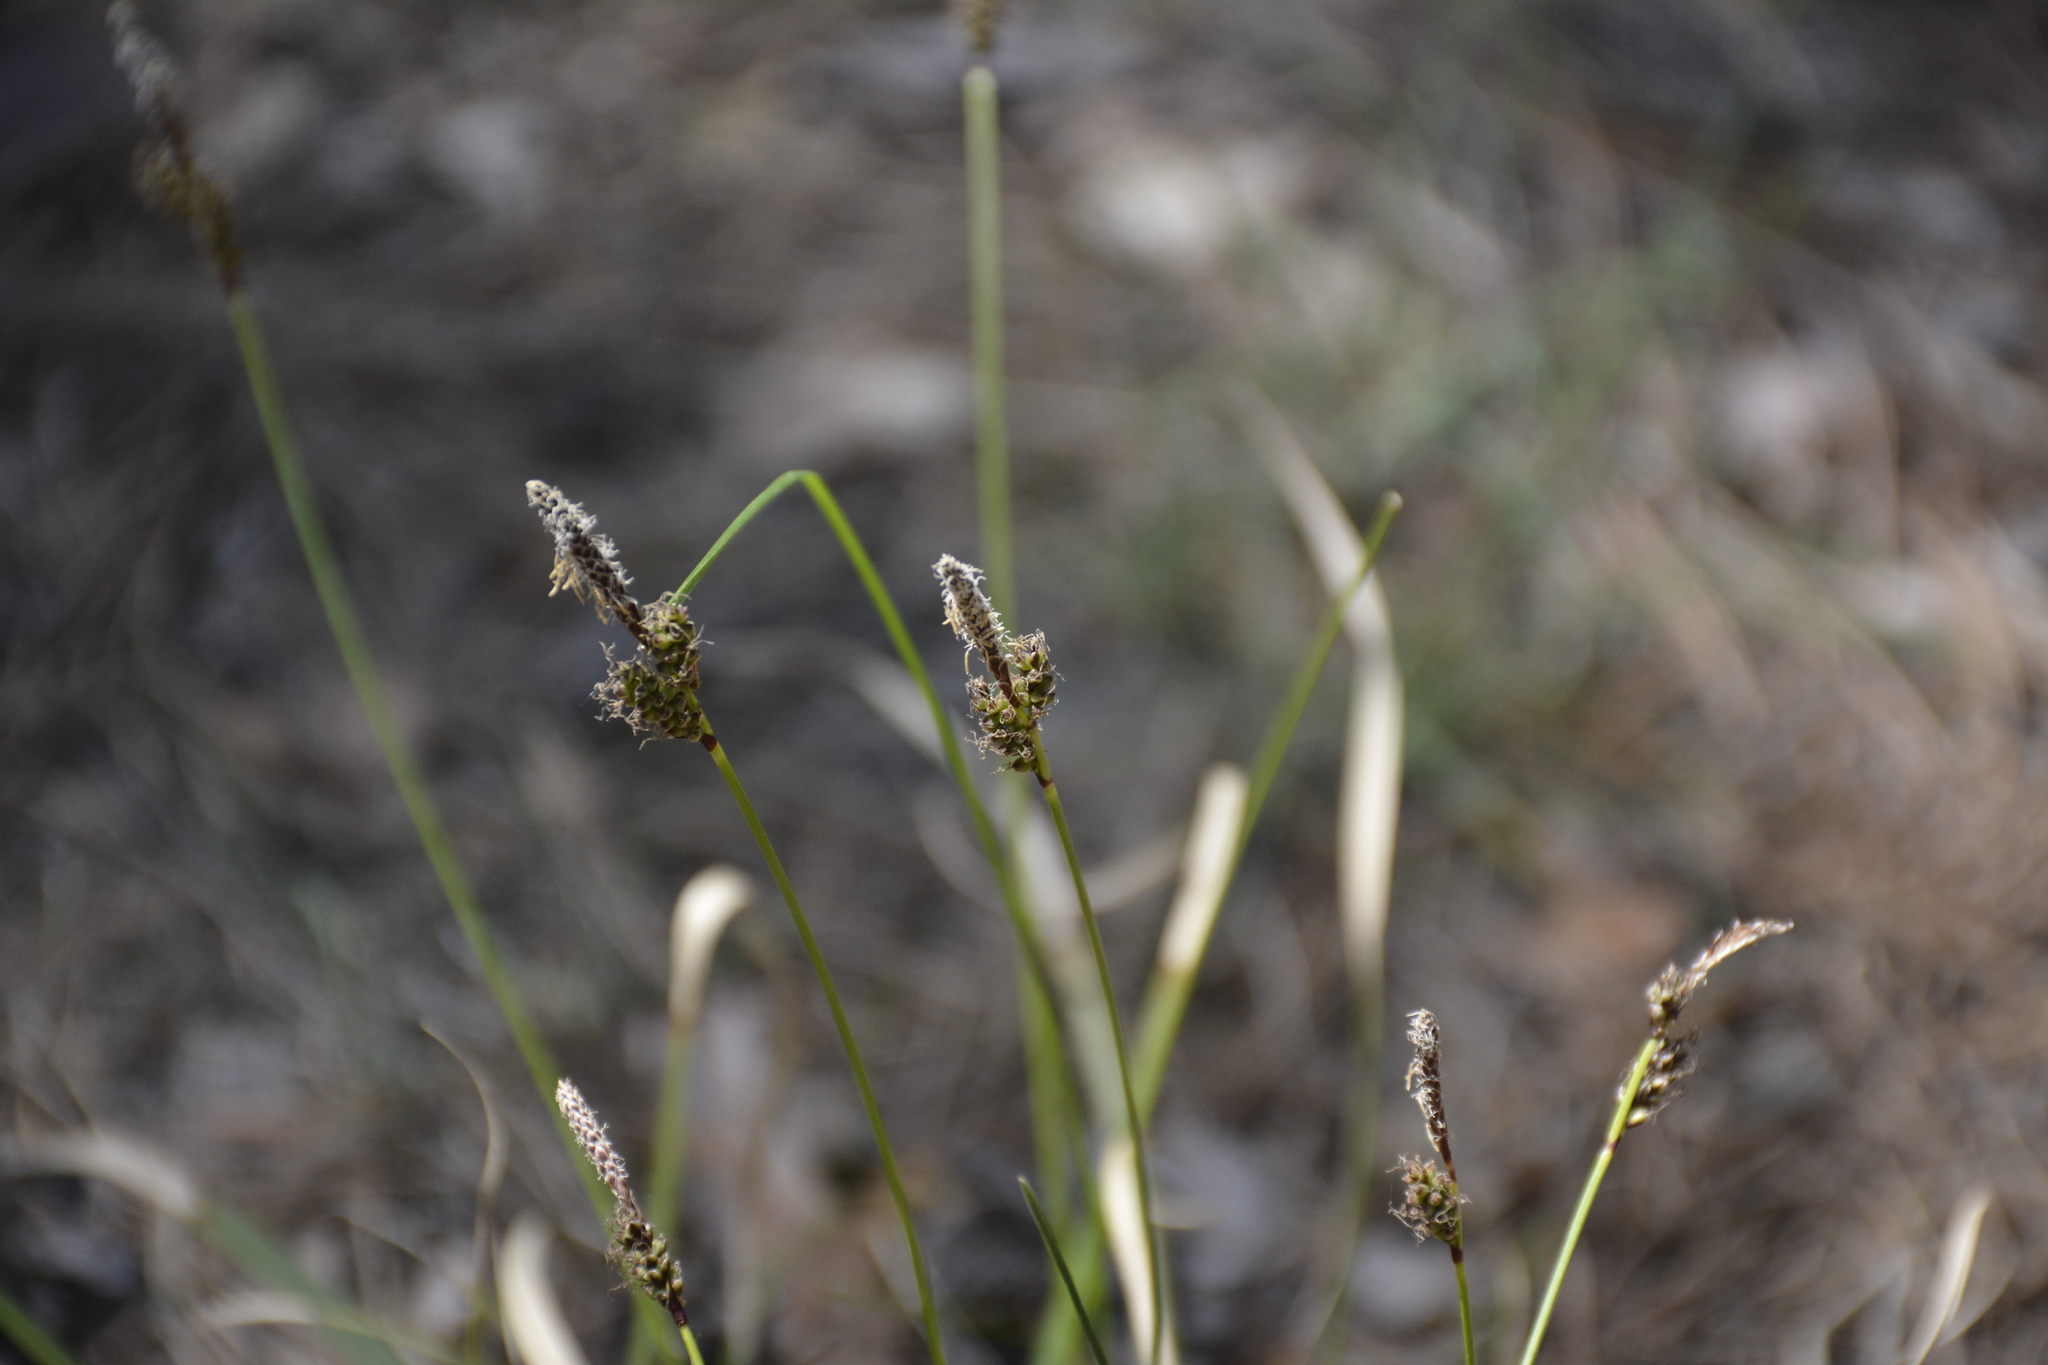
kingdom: Plantae
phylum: Tracheophyta
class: Liliopsida
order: Poales
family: Cyperaceae
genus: Carex
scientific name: Carex ericetorum
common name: Rare spring-sedge
